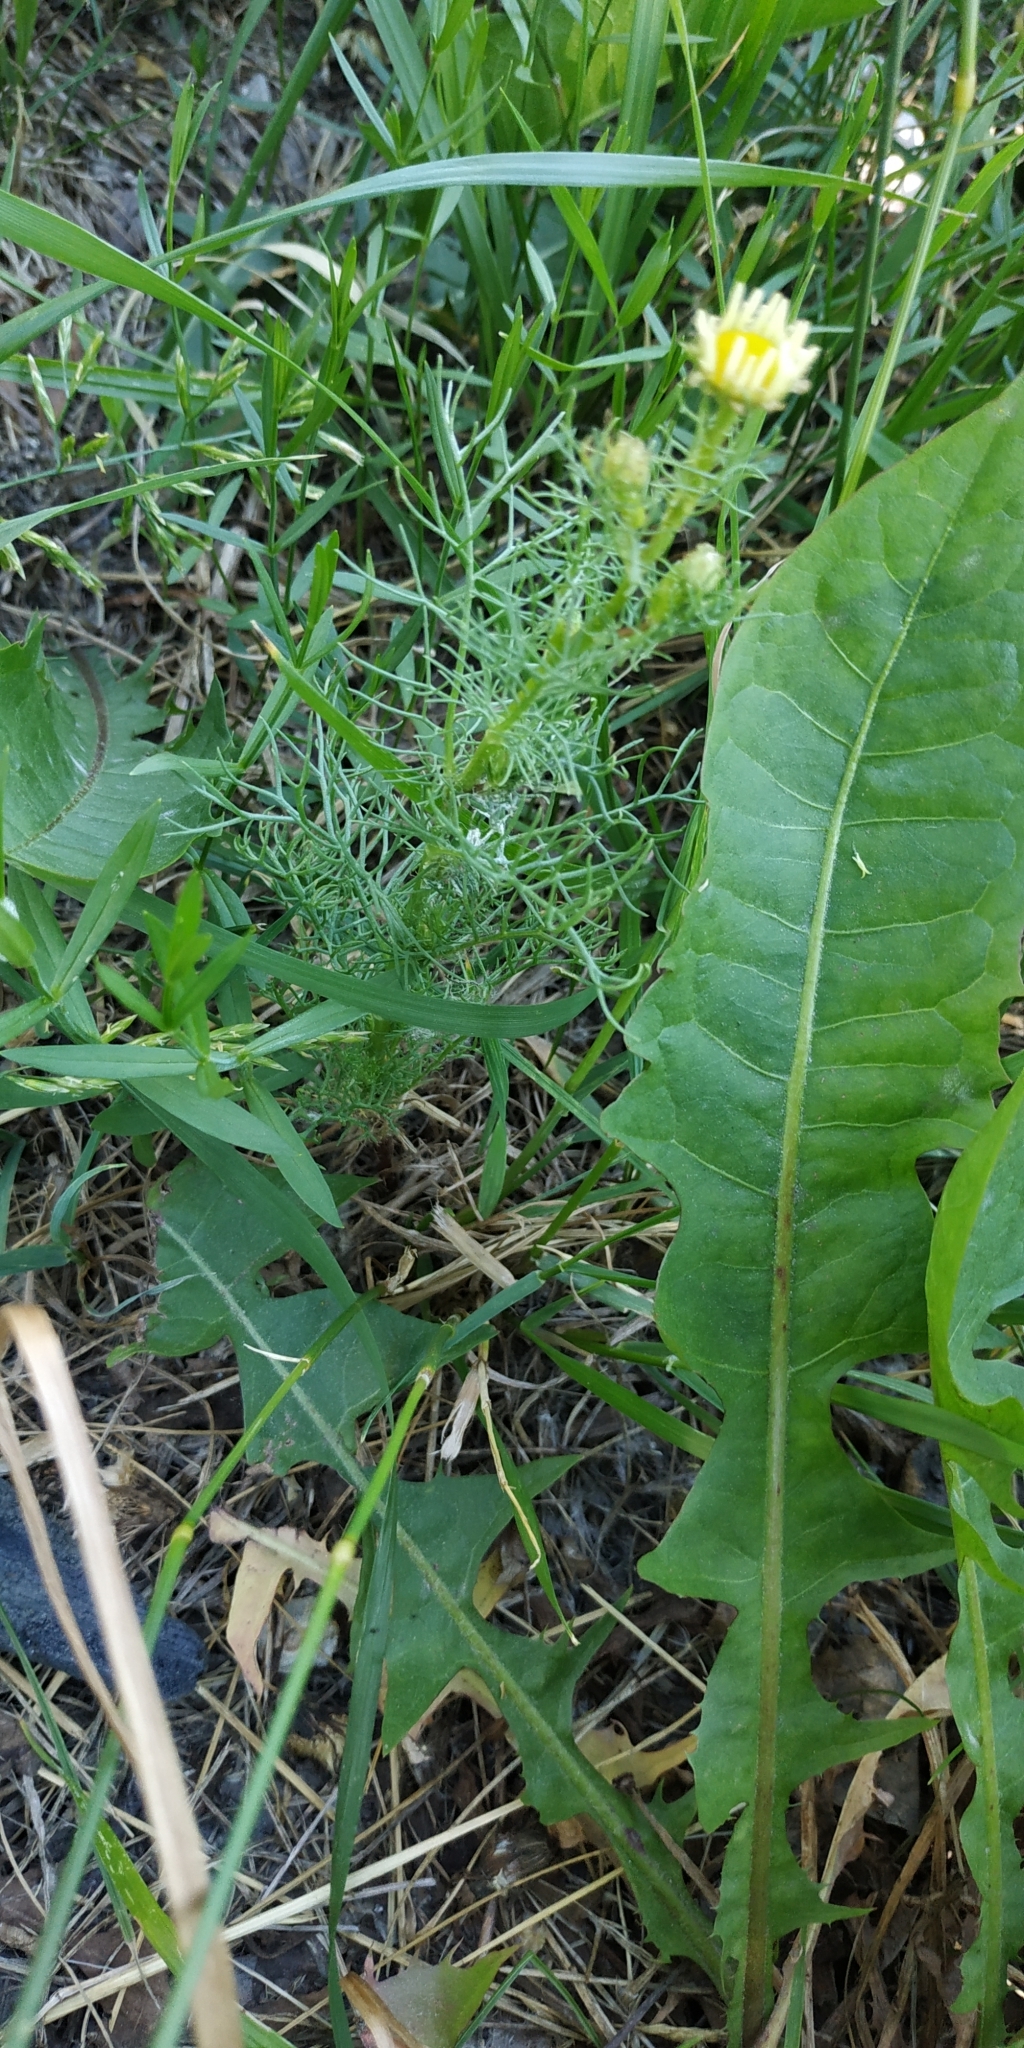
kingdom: Plantae
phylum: Tracheophyta
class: Magnoliopsida
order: Asterales
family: Asteraceae
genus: Tripleurospermum
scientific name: Tripleurospermum inodorum
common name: Scentless mayweed
